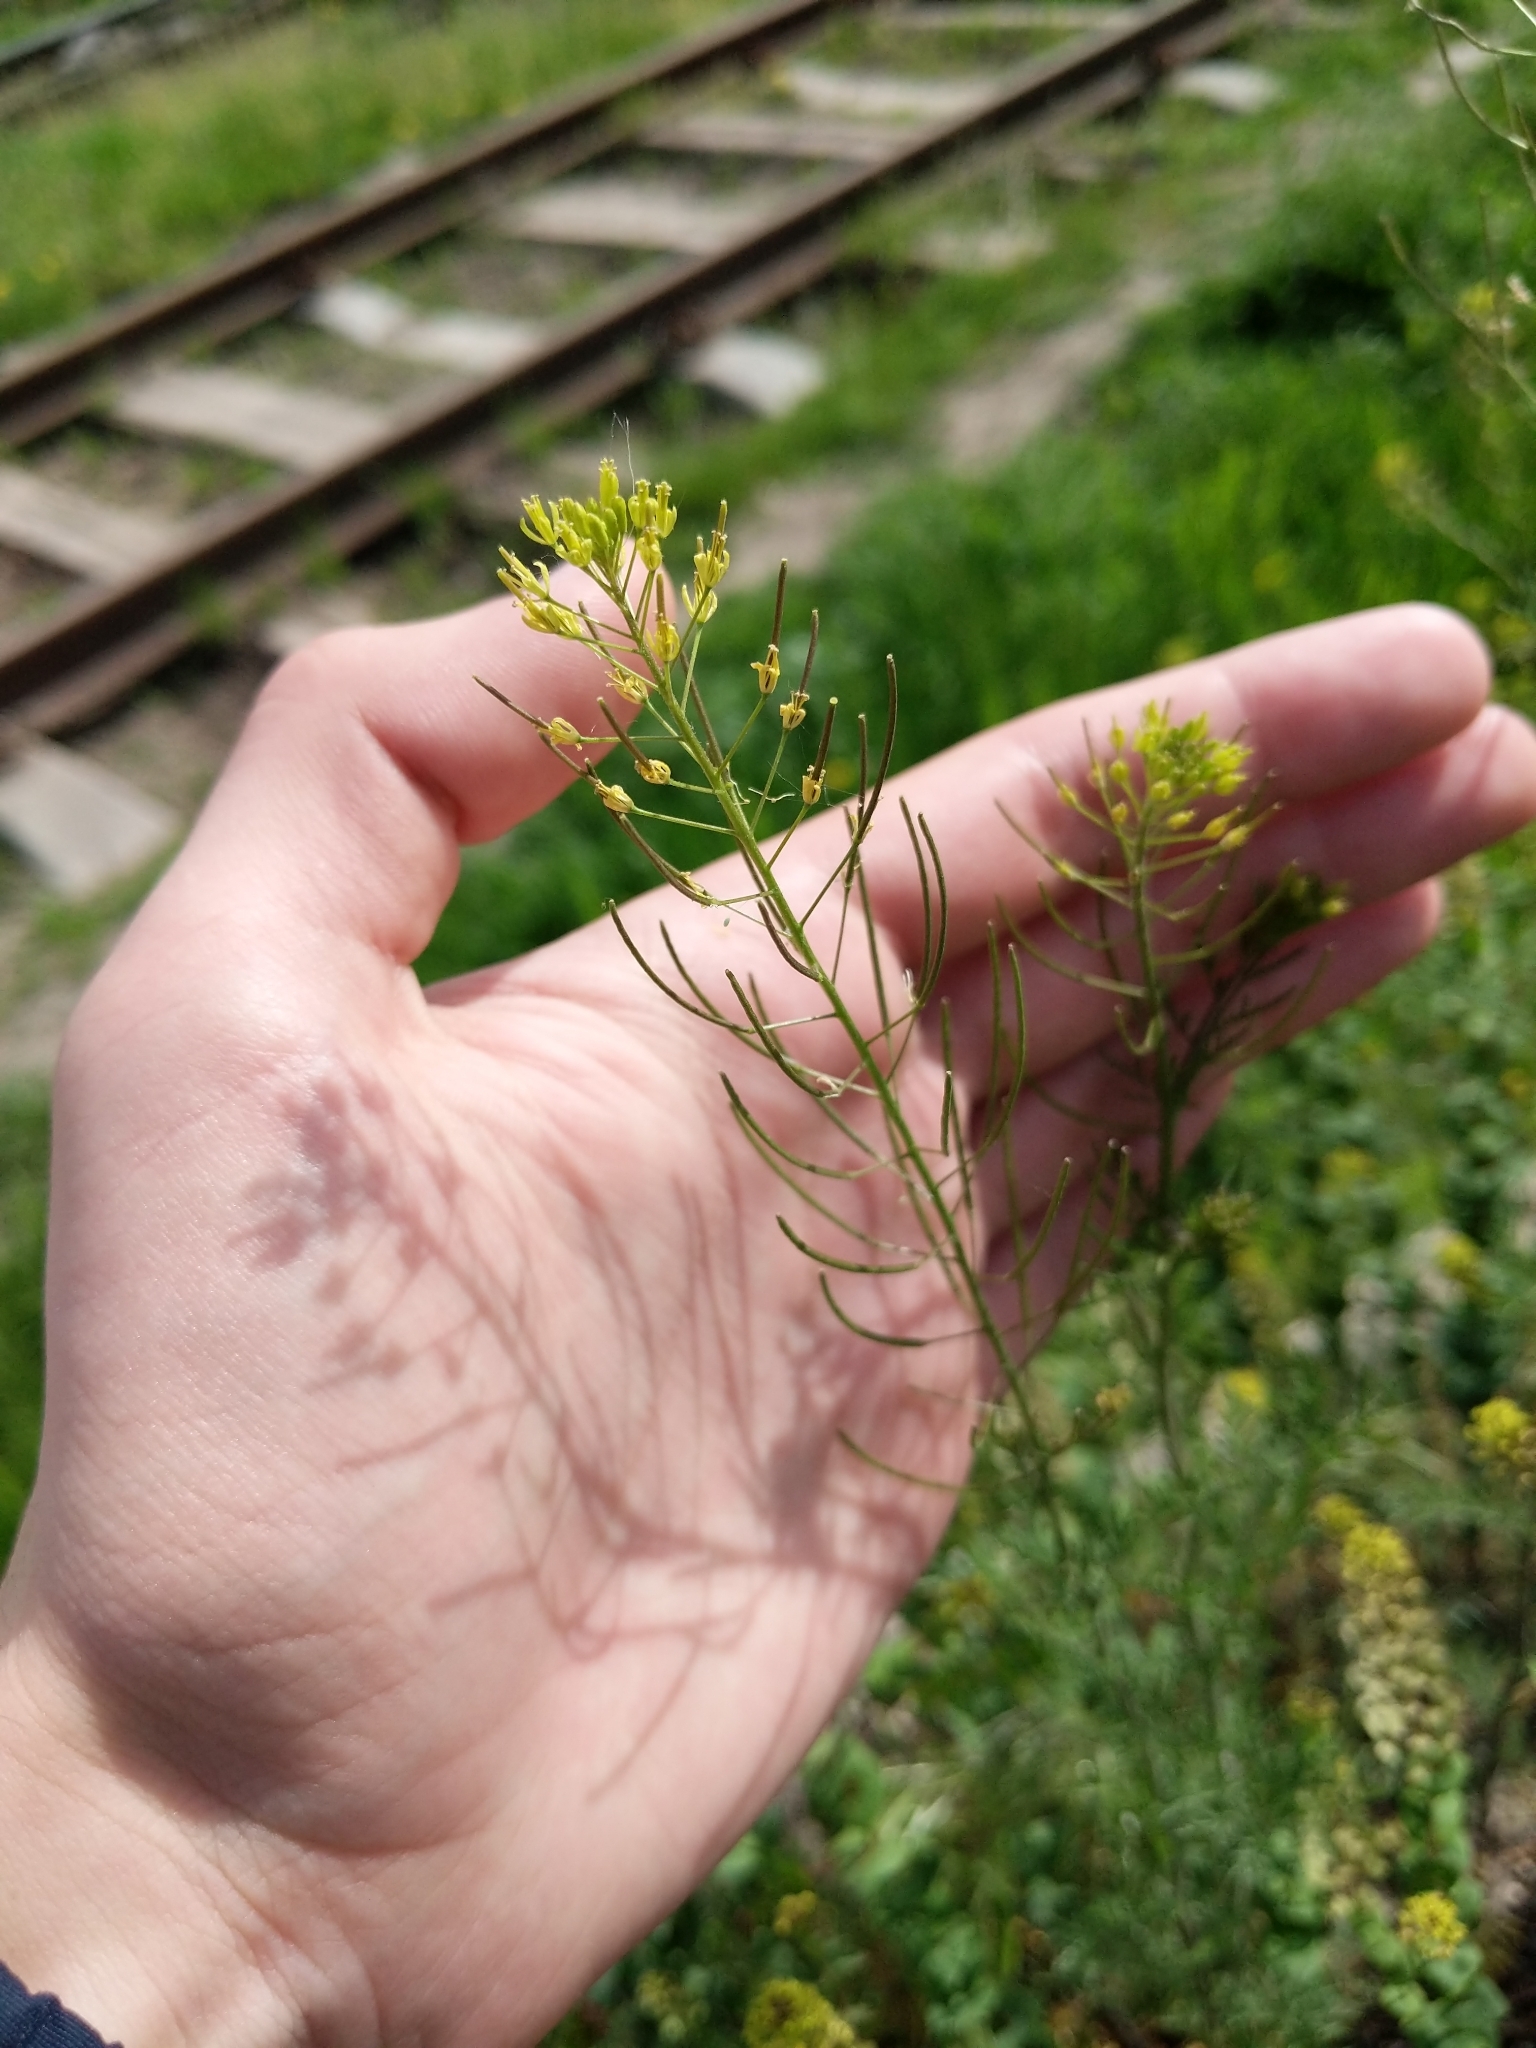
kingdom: Plantae
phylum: Tracheophyta
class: Magnoliopsida
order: Brassicales
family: Brassicaceae
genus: Descurainia
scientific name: Descurainia sophia
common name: Flixweed
